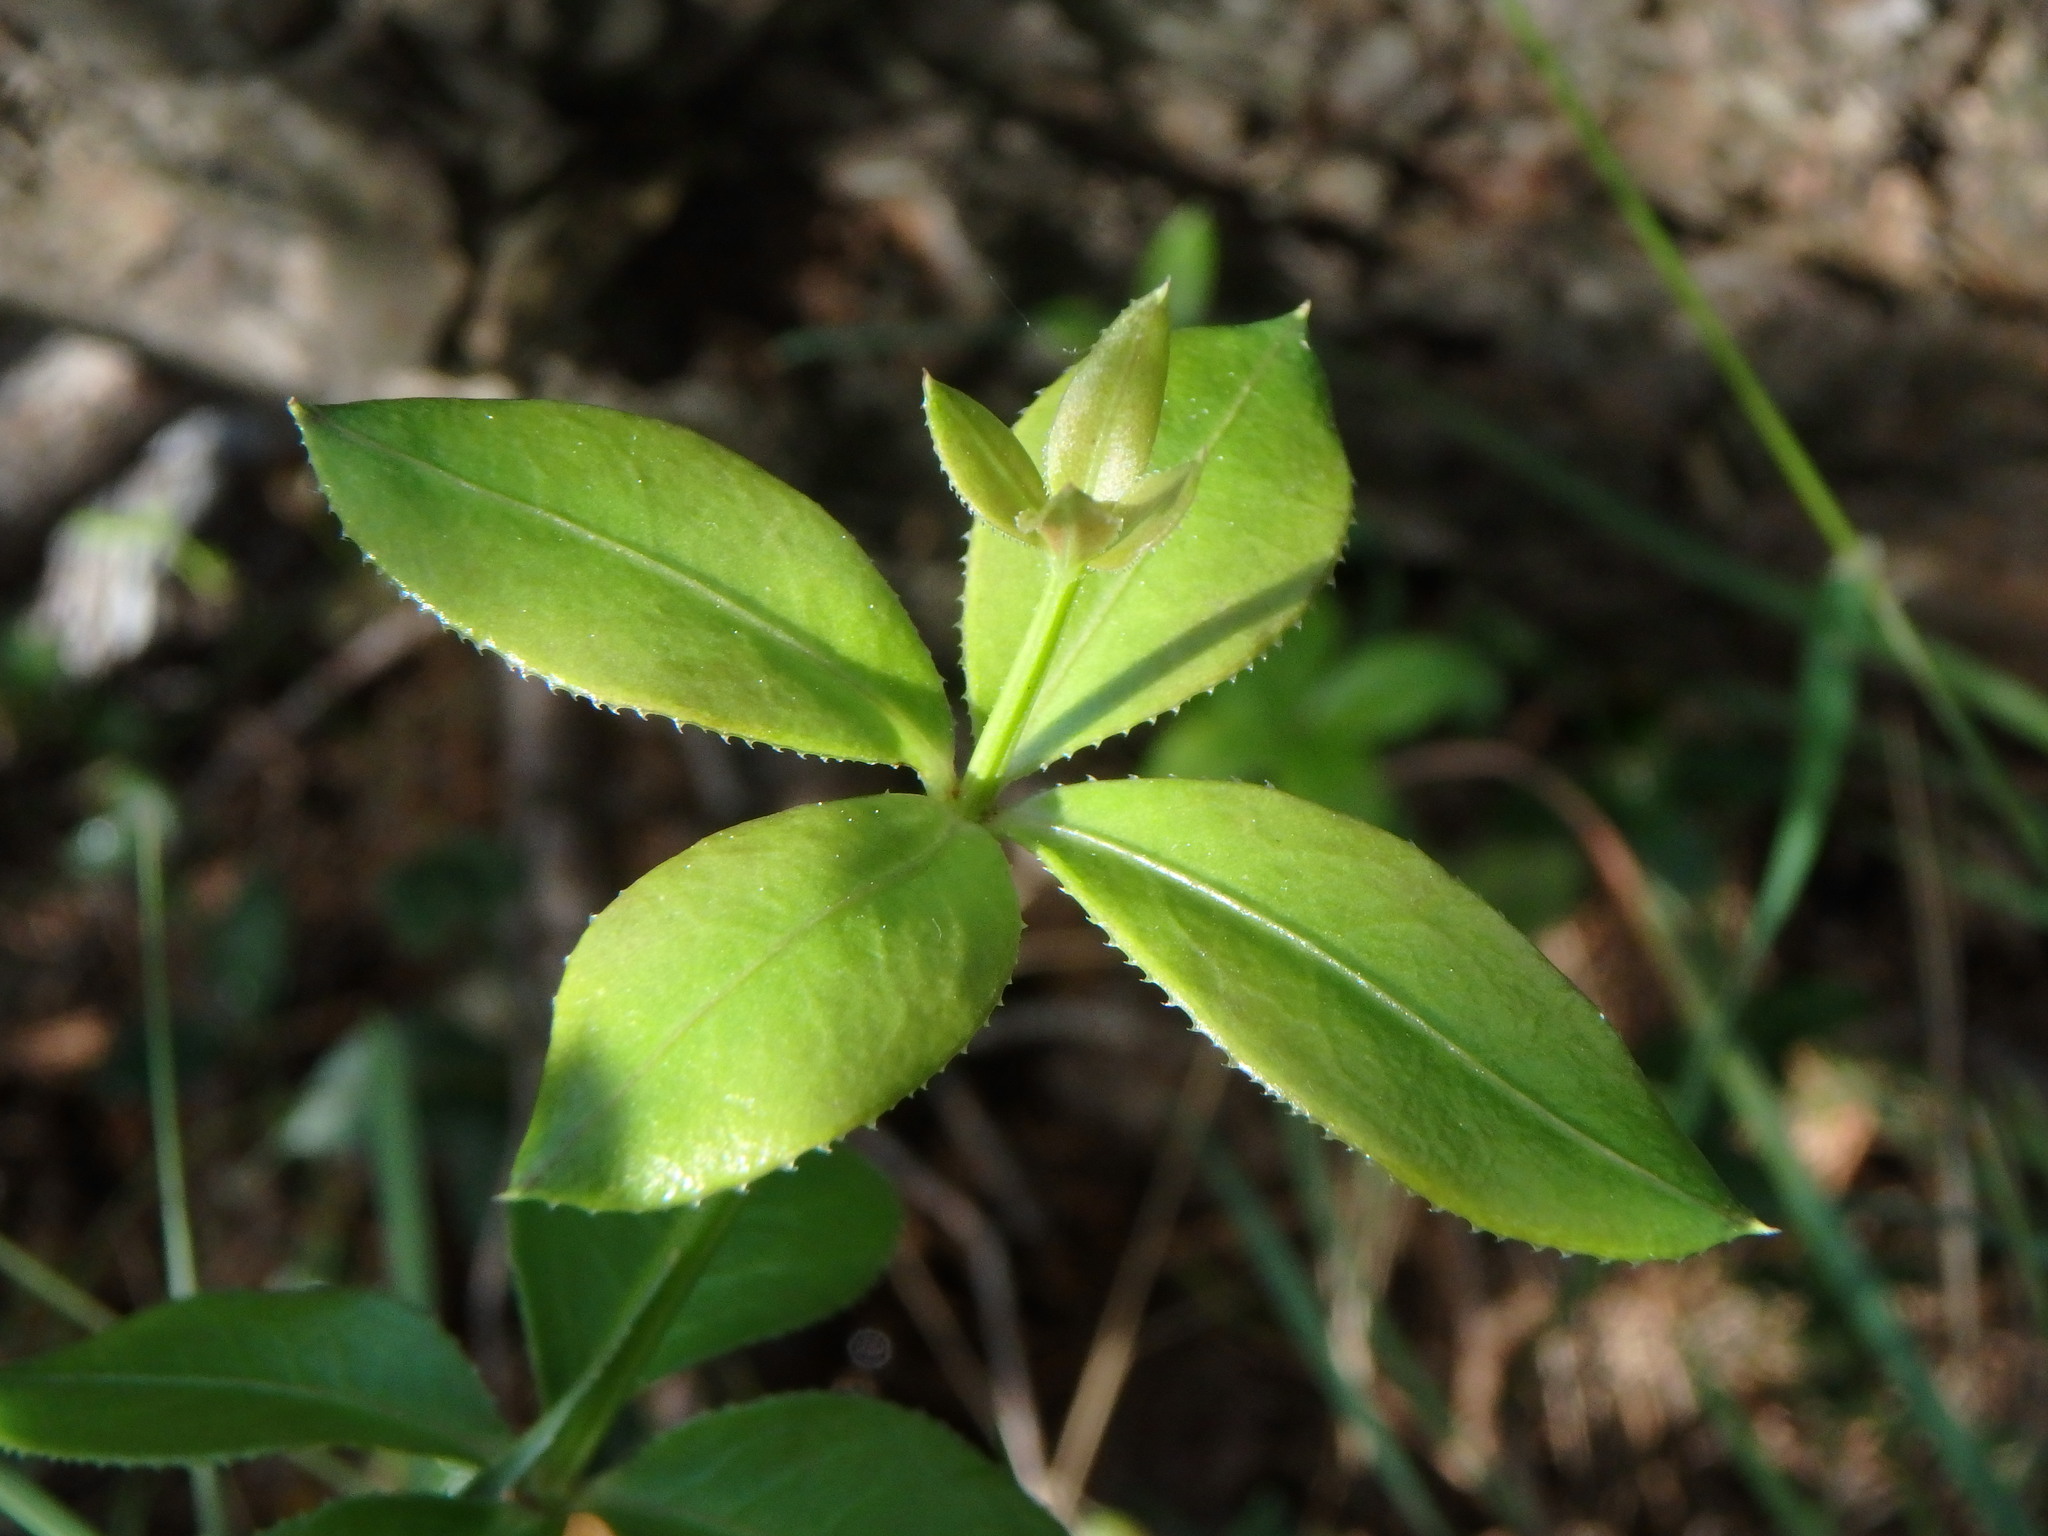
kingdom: Plantae
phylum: Tracheophyta
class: Magnoliopsida
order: Gentianales
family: Rubiaceae
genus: Rubia
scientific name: Rubia peregrina
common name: Wild madder
